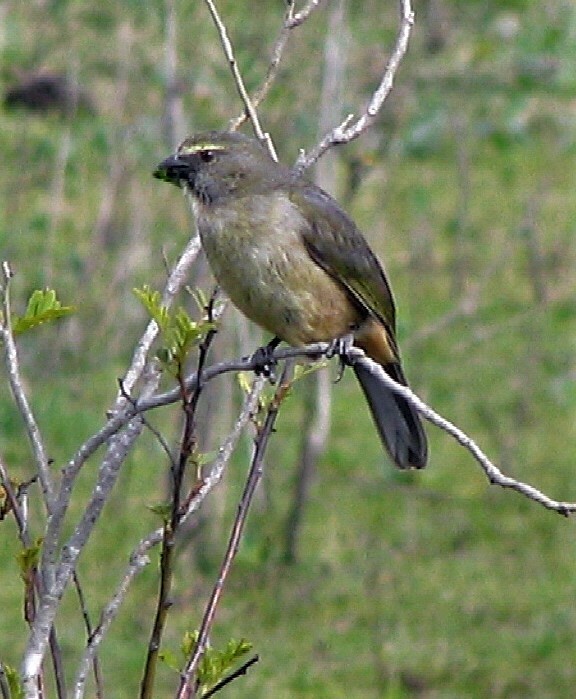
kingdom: Animalia
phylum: Chordata
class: Aves
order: Passeriformes
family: Thraupidae
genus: Saltator
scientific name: Saltator coerulescens
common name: Grayish saltator
